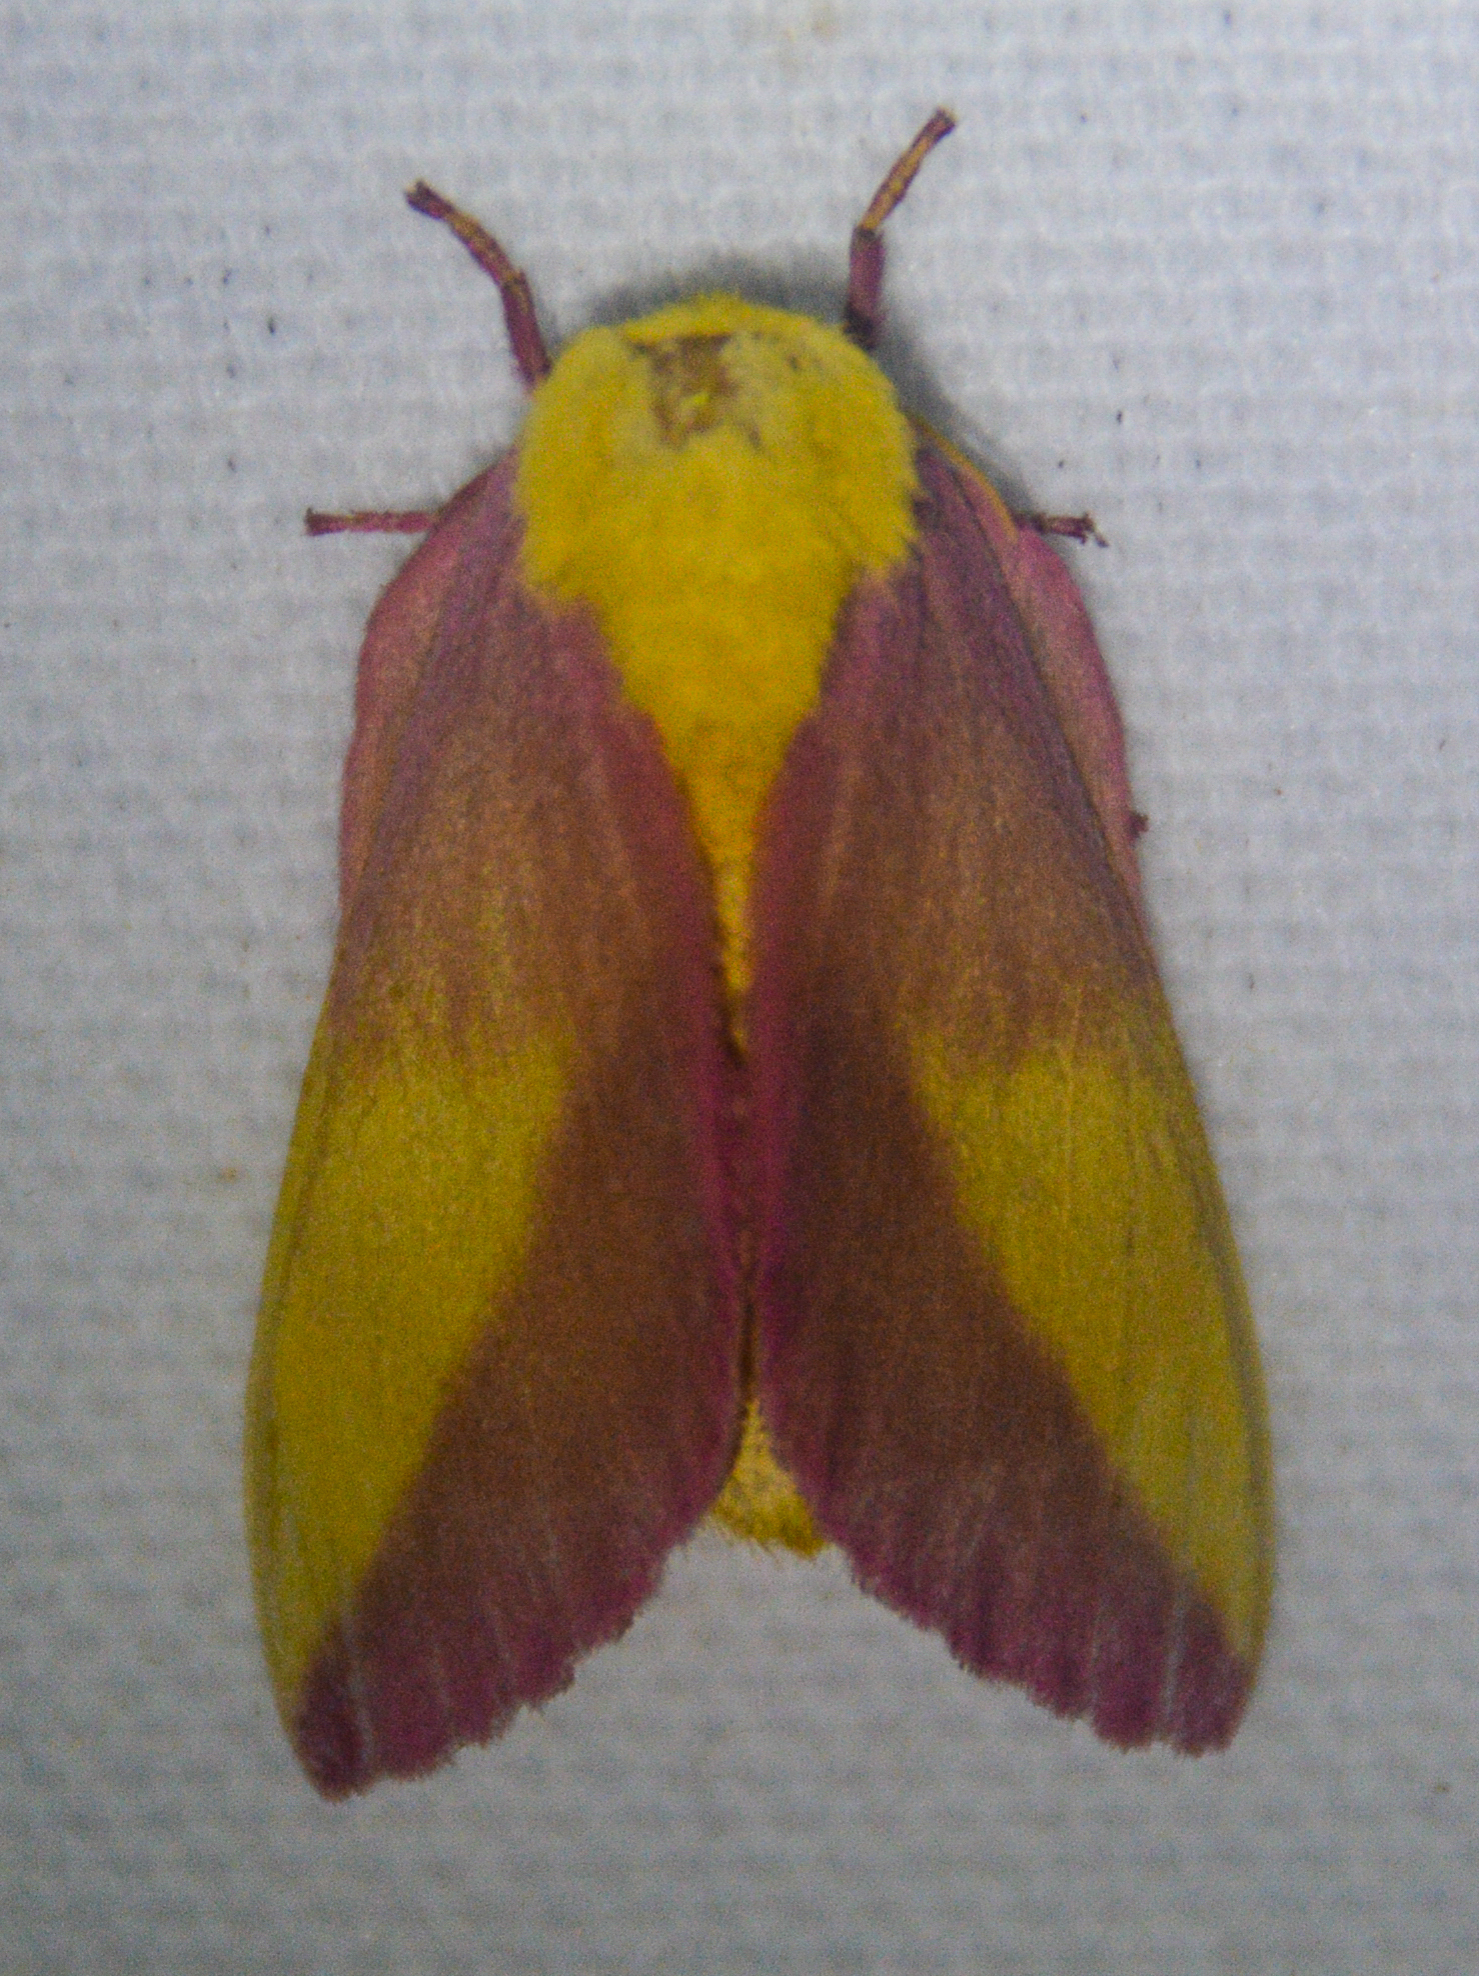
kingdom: Animalia
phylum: Arthropoda
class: Insecta
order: Lepidoptera
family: Saturniidae
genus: Dryocampa
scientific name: Dryocampa rubicunda
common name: Rosy maple moth
